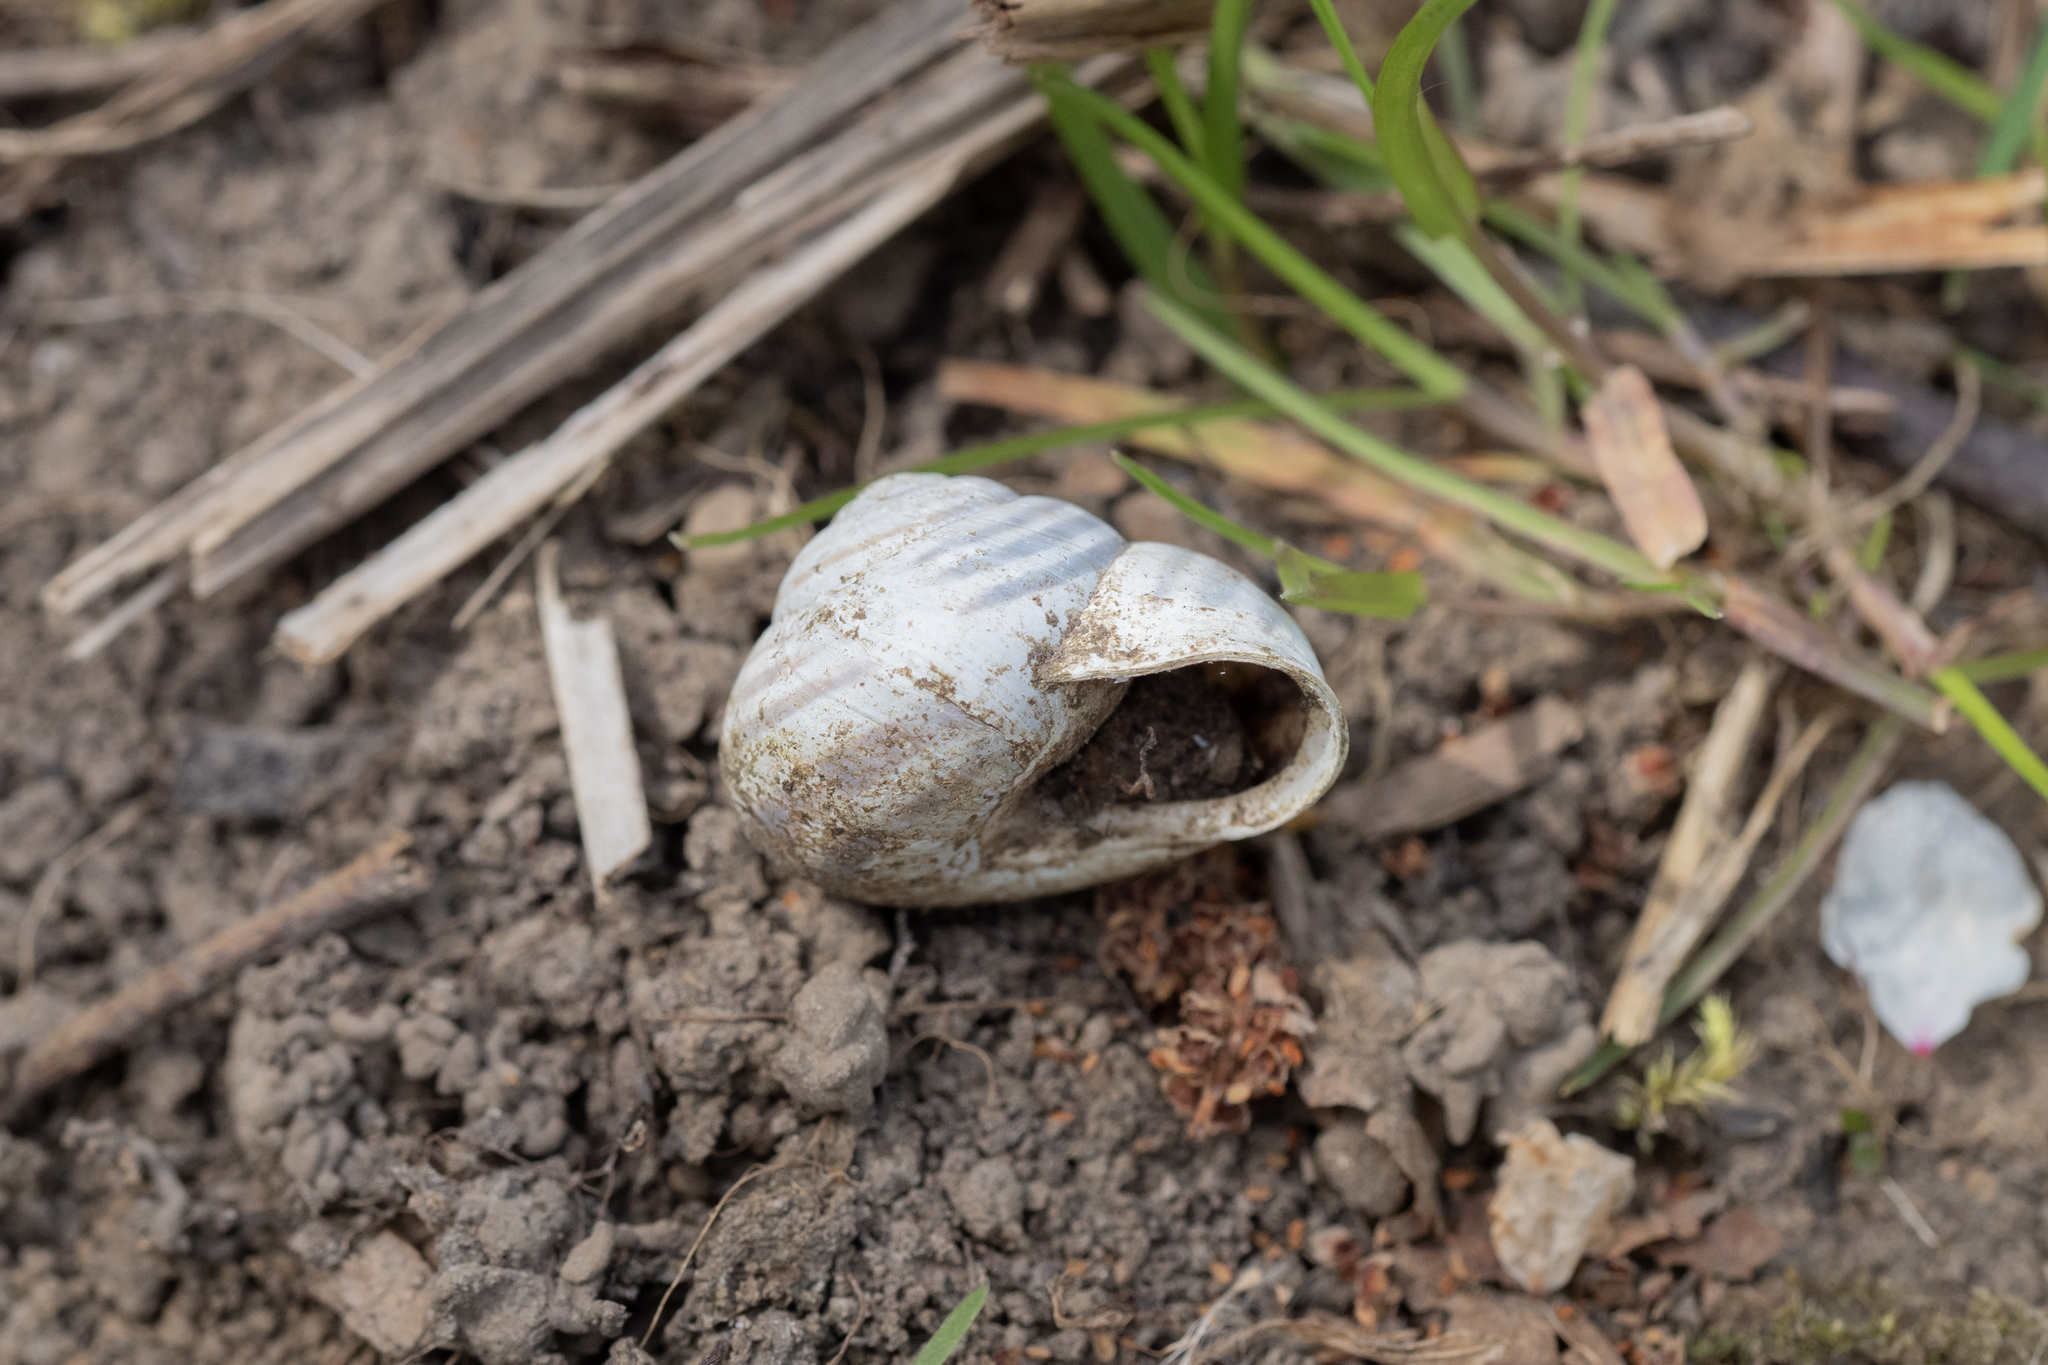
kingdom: Animalia
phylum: Mollusca
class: Gastropoda
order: Stylommatophora
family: Helicidae
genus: Caucasotachea
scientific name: Caucasotachea vindobonensis
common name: European helicid land snail
